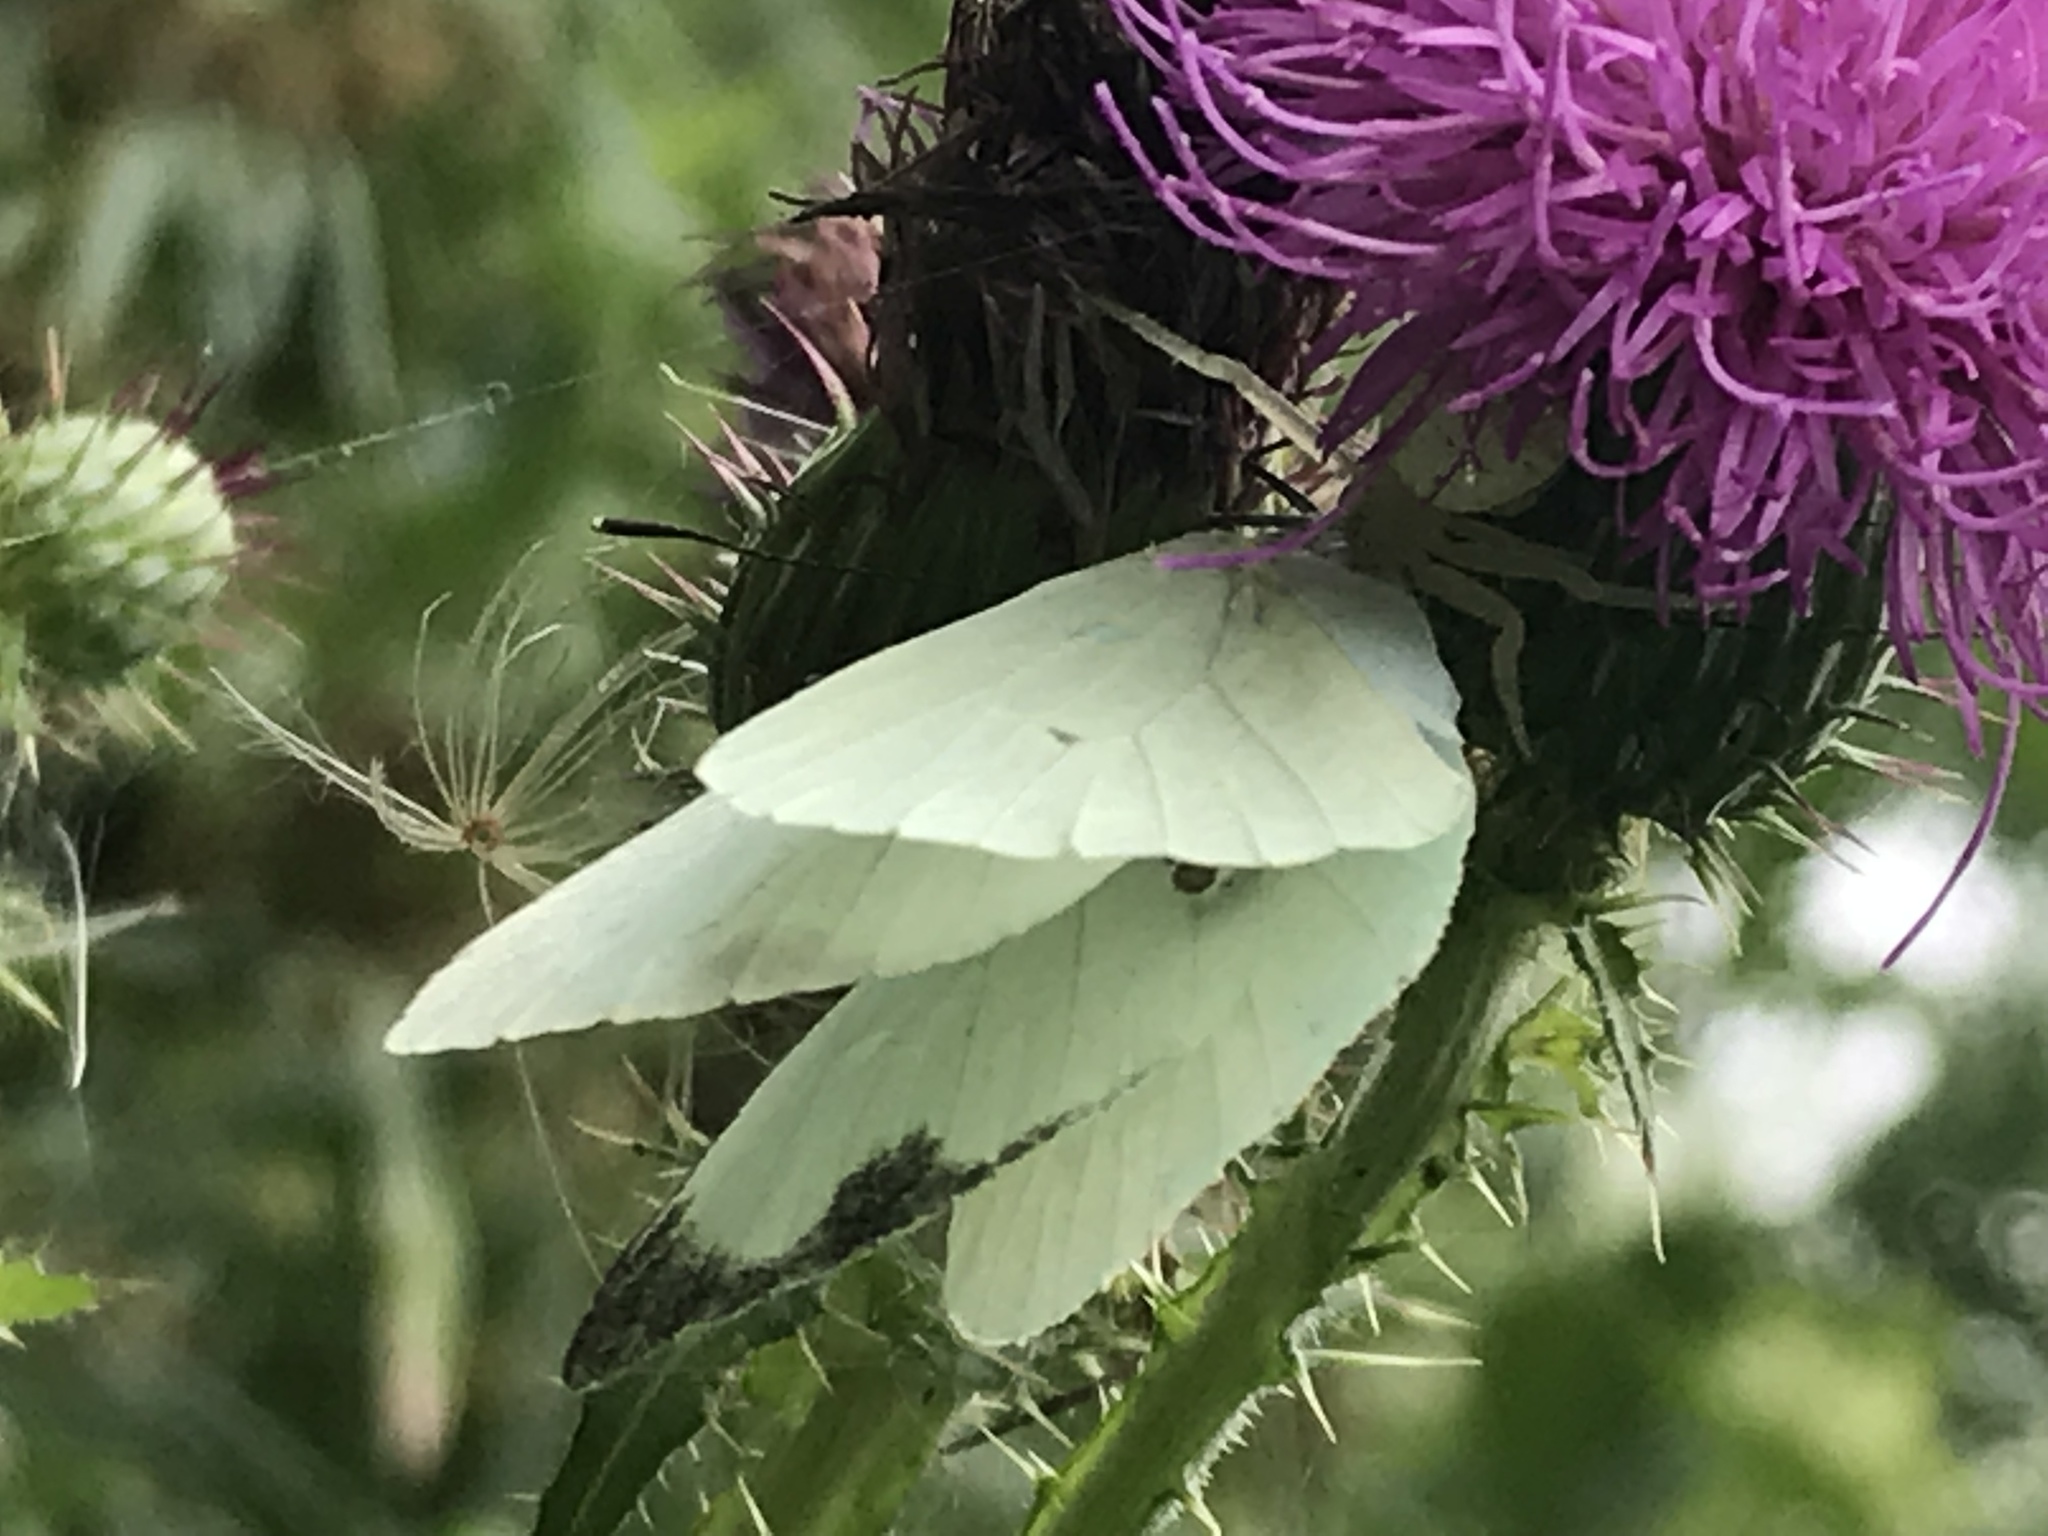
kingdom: Animalia
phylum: Arthropoda
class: Insecta
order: Lepidoptera
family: Pieridae
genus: Leptophobia
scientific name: Leptophobia aripa
